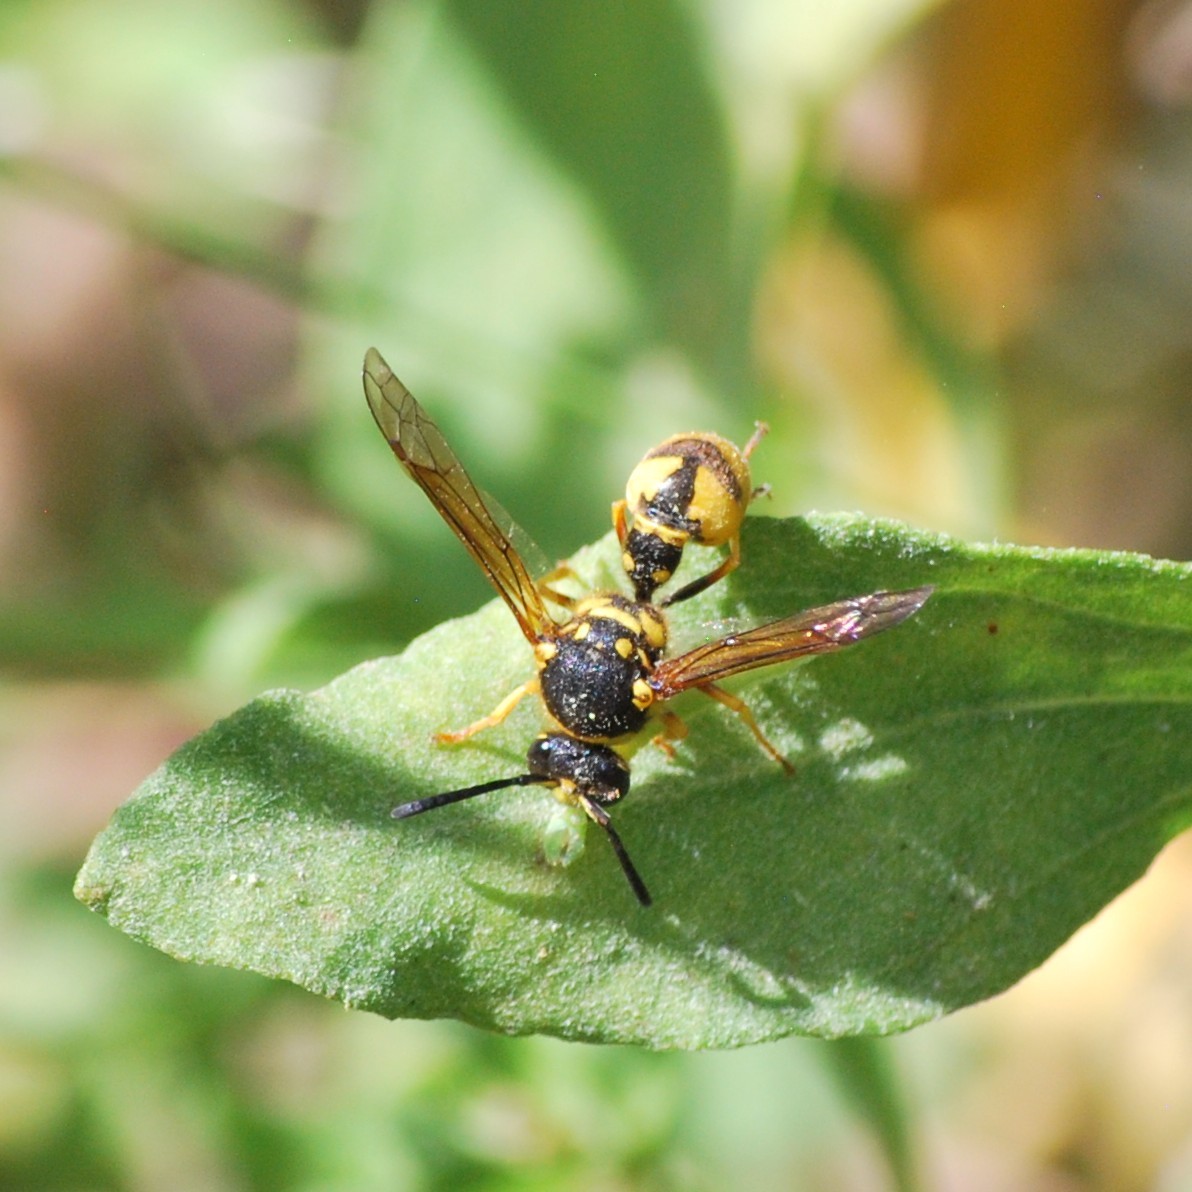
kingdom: Animalia
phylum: Arthropoda
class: Insecta
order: Hymenoptera
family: Vespidae
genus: Eumenes
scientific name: Eumenes crucifera
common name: Cross potter wasp
